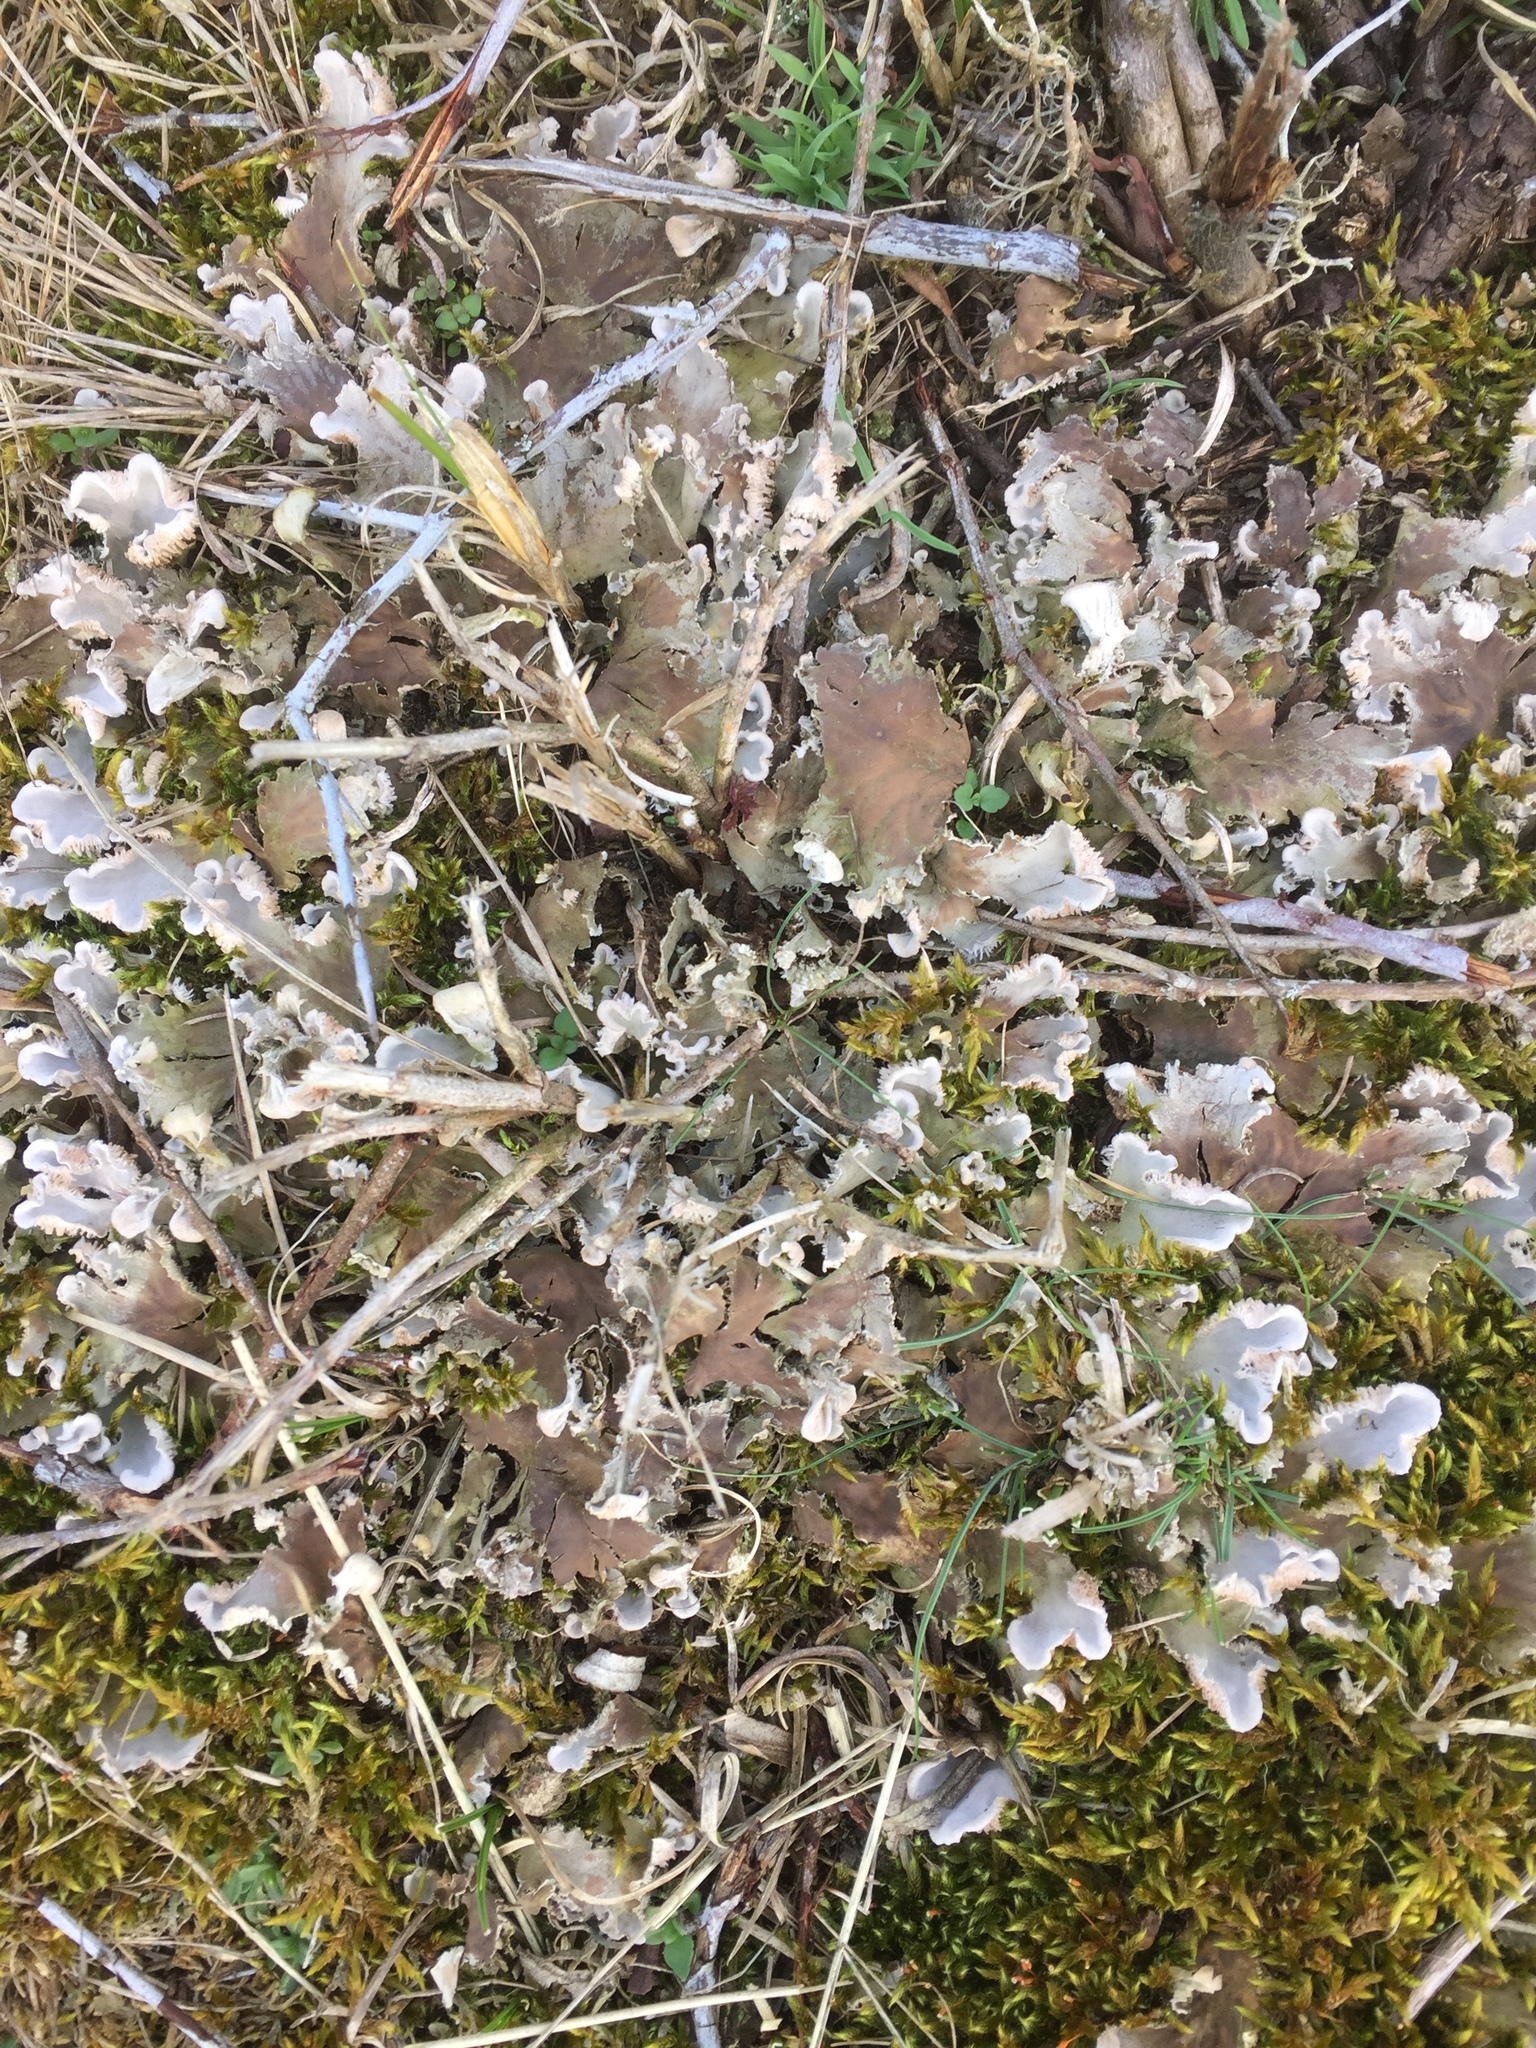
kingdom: Fungi
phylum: Ascomycota
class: Lecanoromycetes
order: Peltigerales
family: Peltigeraceae
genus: Peltigera
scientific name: Peltigera canina
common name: Dog pelt lichen
